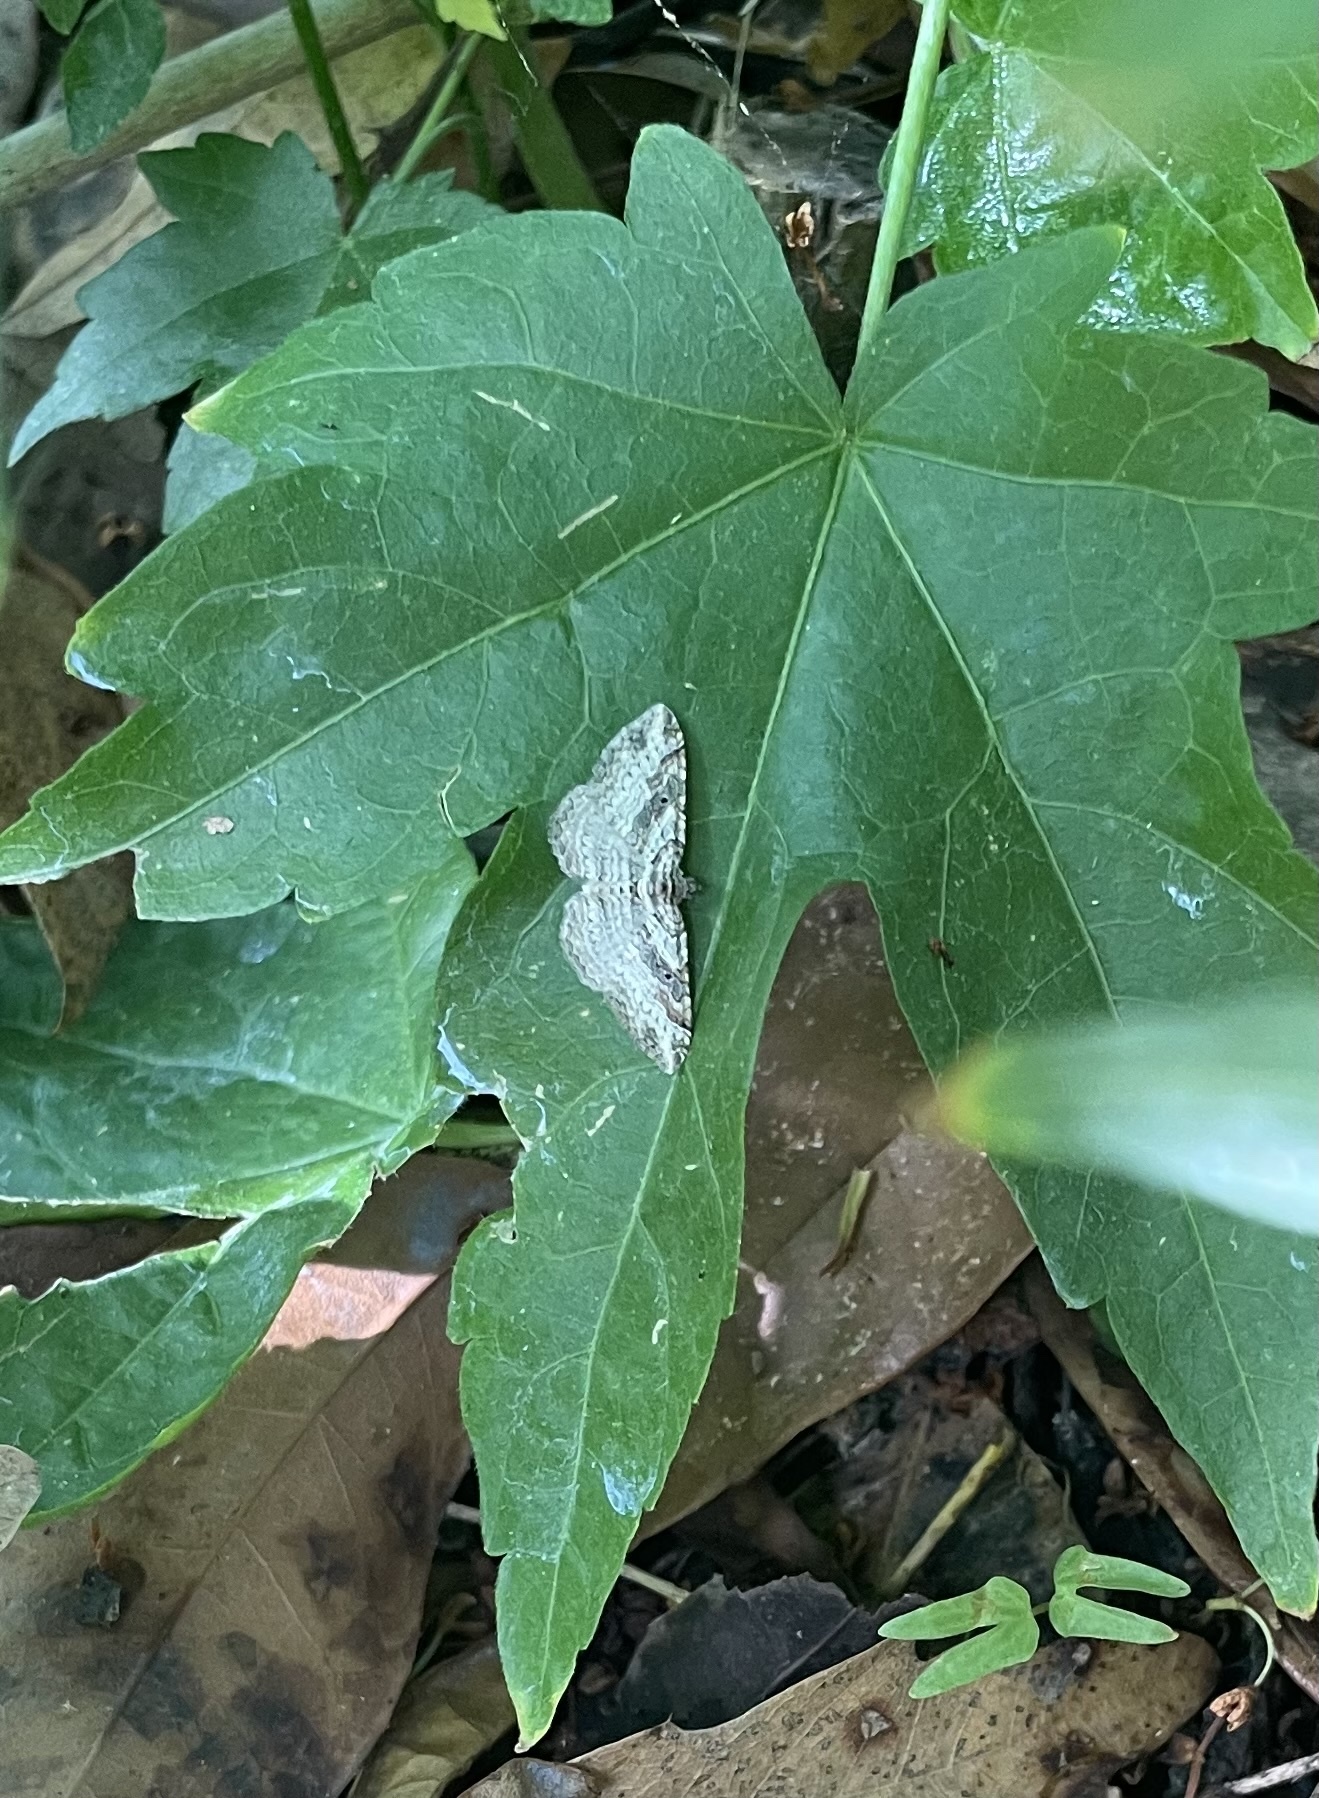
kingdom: Animalia
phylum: Arthropoda
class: Insecta
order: Lepidoptera
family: Geometridae
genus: Costaconvexa
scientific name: Costaconvexa centrostrigaria
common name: Bent-line carpet
